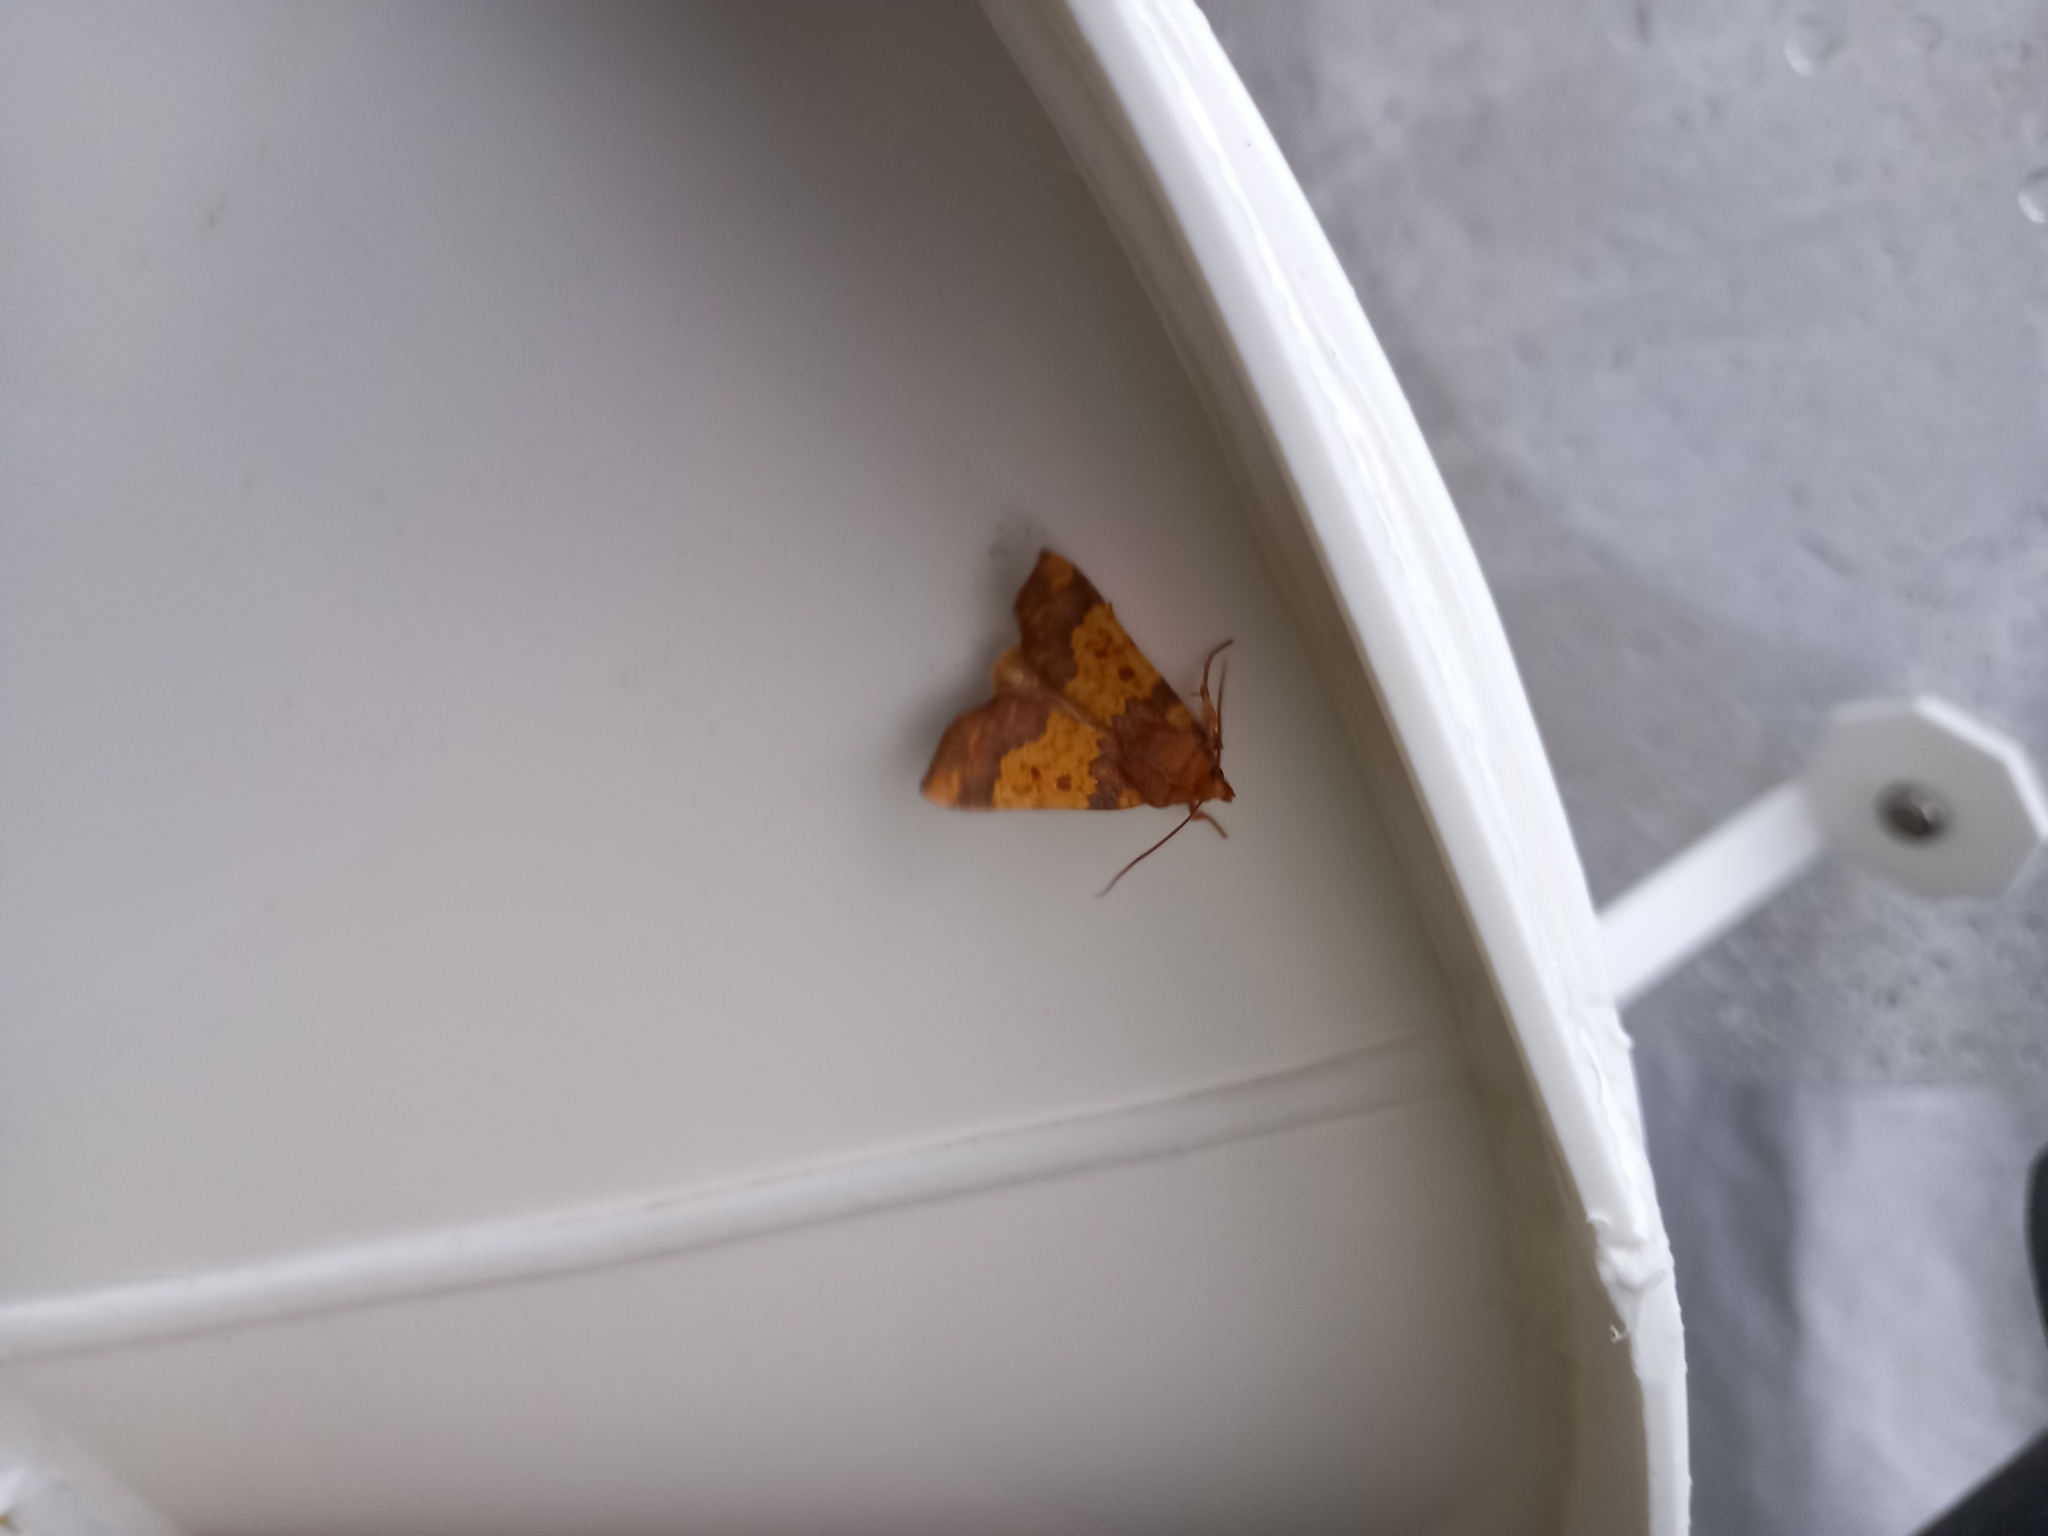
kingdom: Animalia
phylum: Arthropoda
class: Insecta
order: Lepidoptera
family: Noctuidae
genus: Tiliacea
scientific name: Tiliacea aurago
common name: Barred sallow
